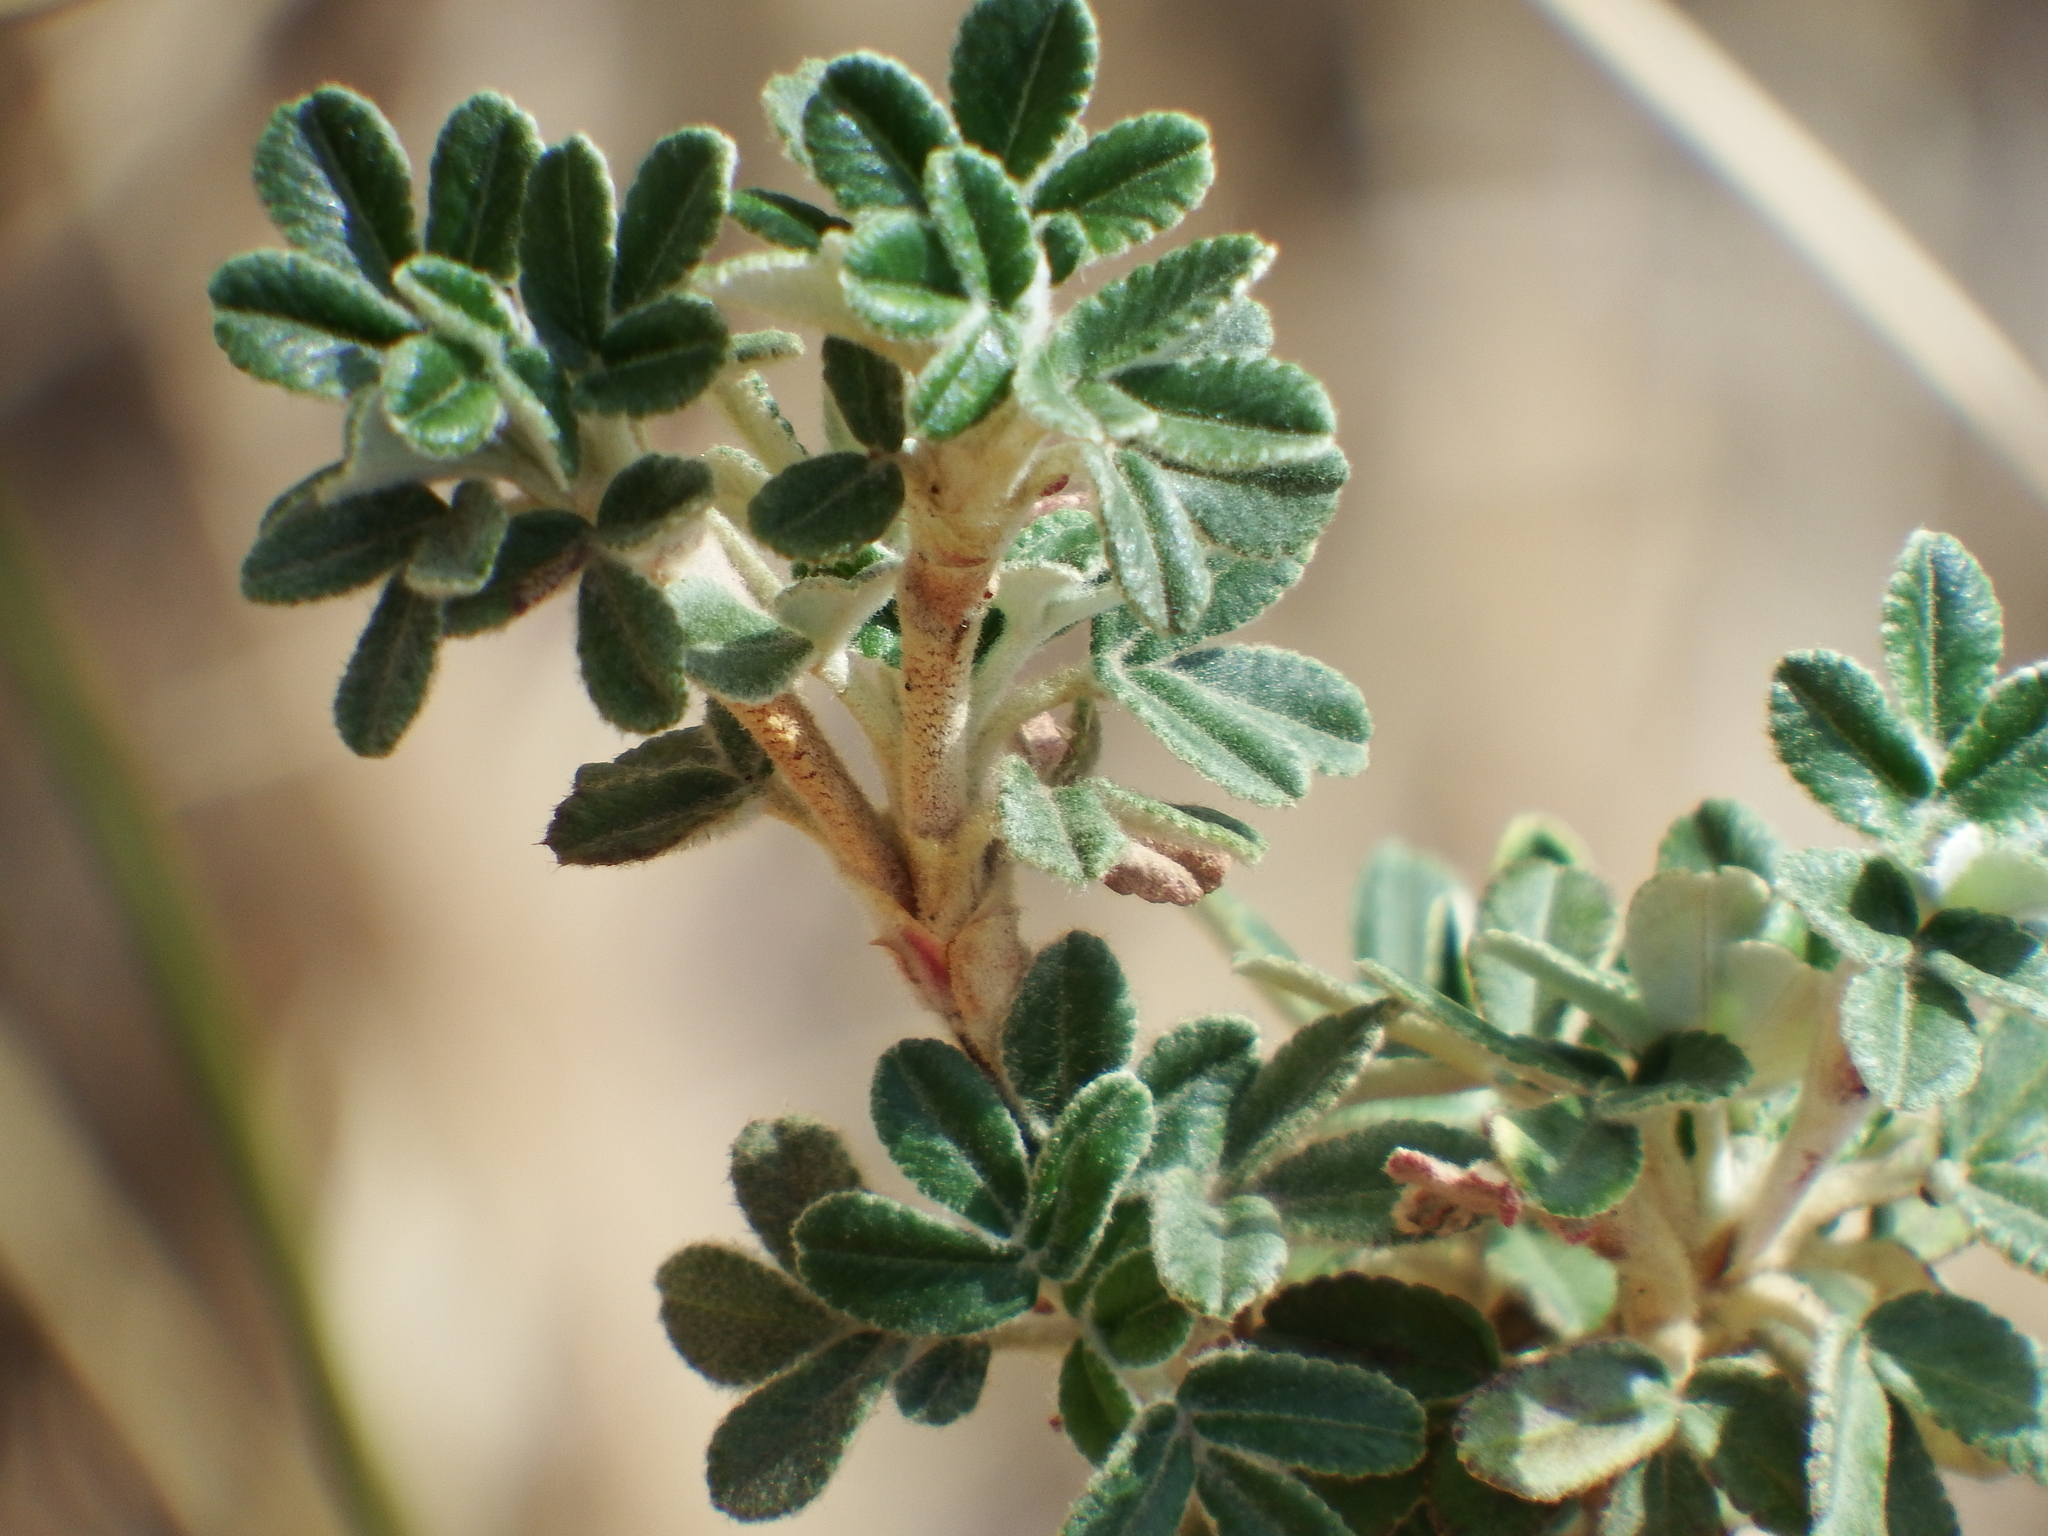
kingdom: Plantae
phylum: Tracheophyta
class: Magnoliopsida
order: Rosales
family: Rosaceae
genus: Polylepis
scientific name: Polylepis tarapacana
